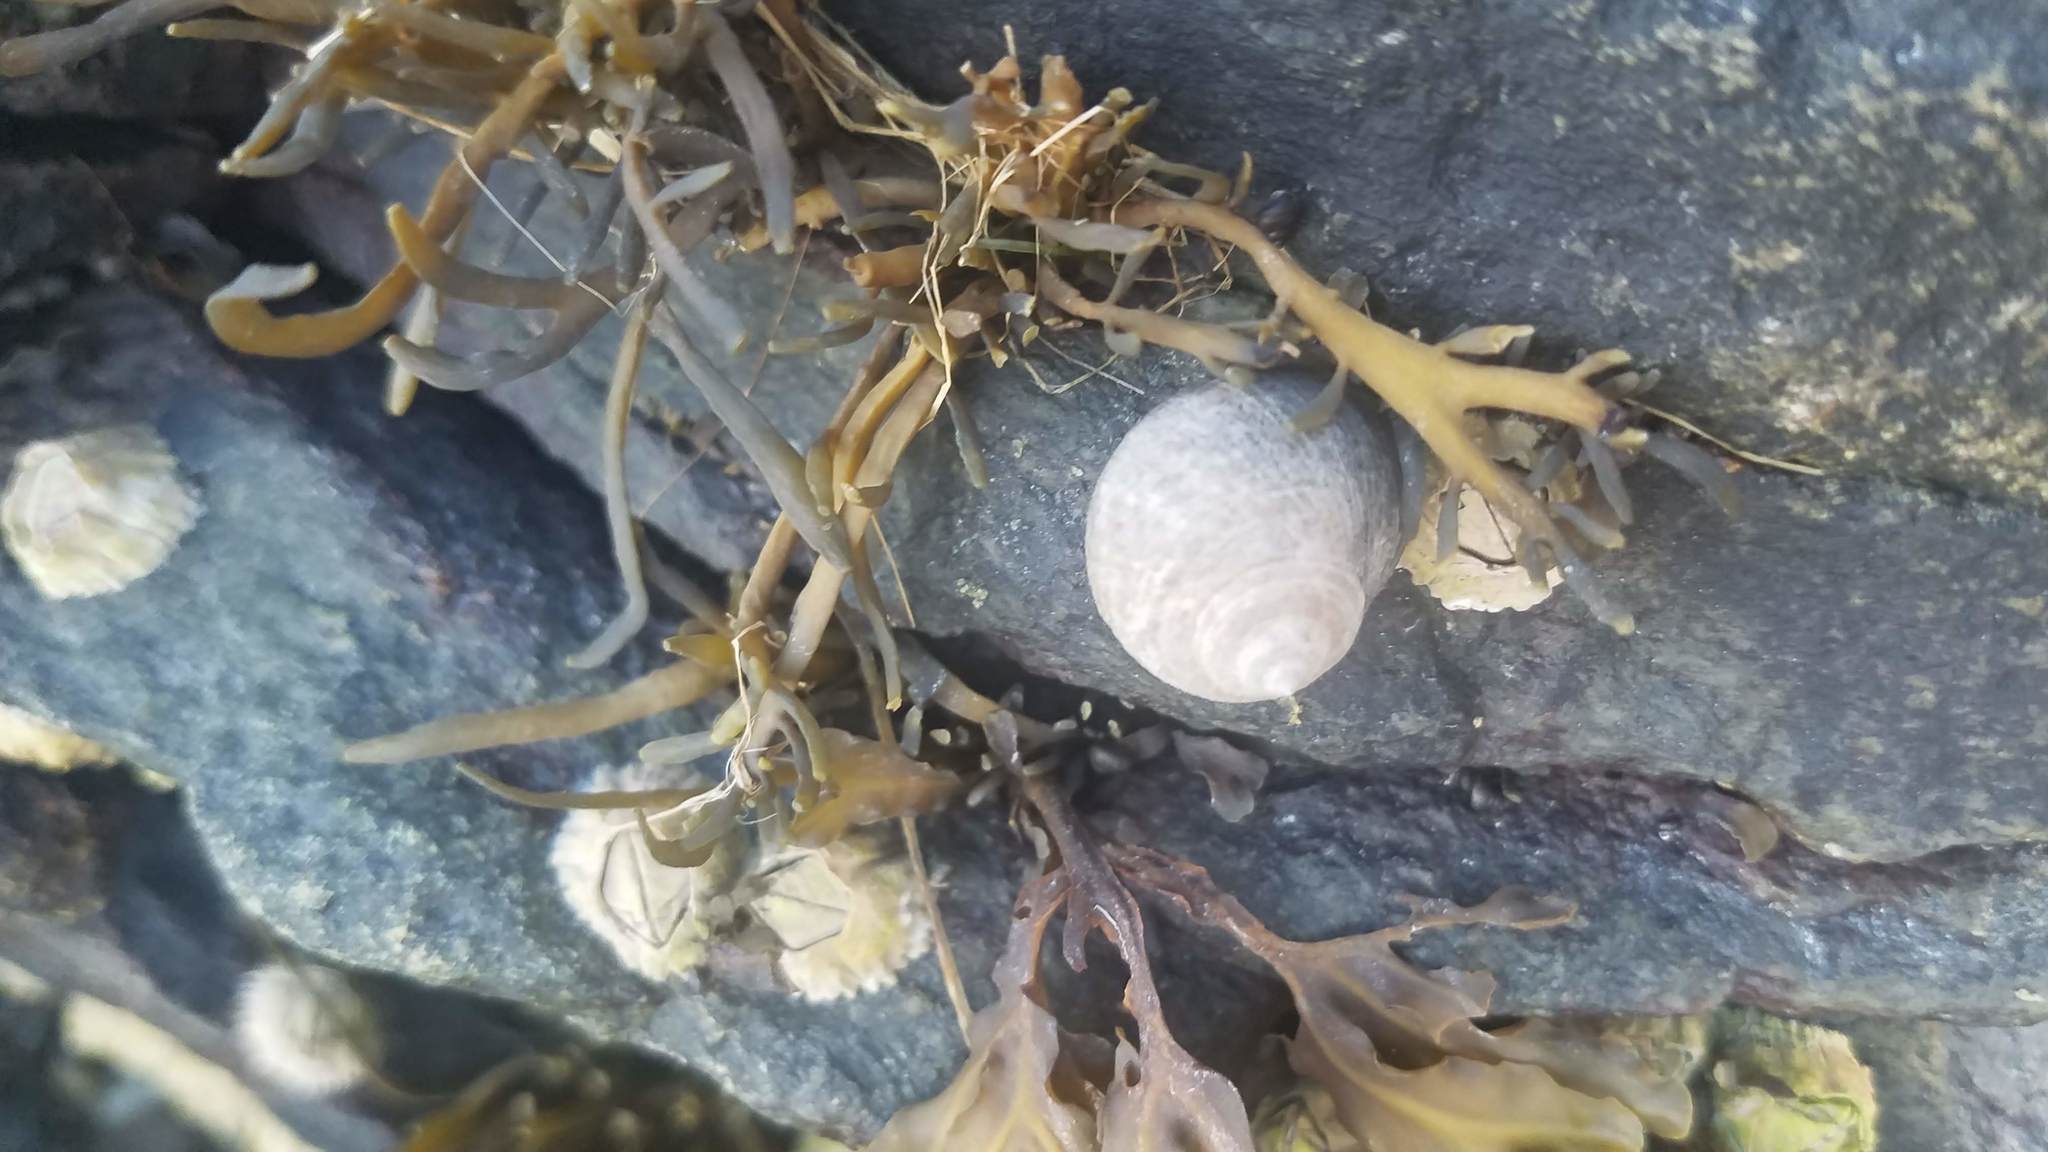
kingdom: Animalia
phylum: Mollusca
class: Gastropoda
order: Littorinimorpha
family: Littorinidae
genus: Littorina
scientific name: Littorina littorea
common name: Common periwinkle
